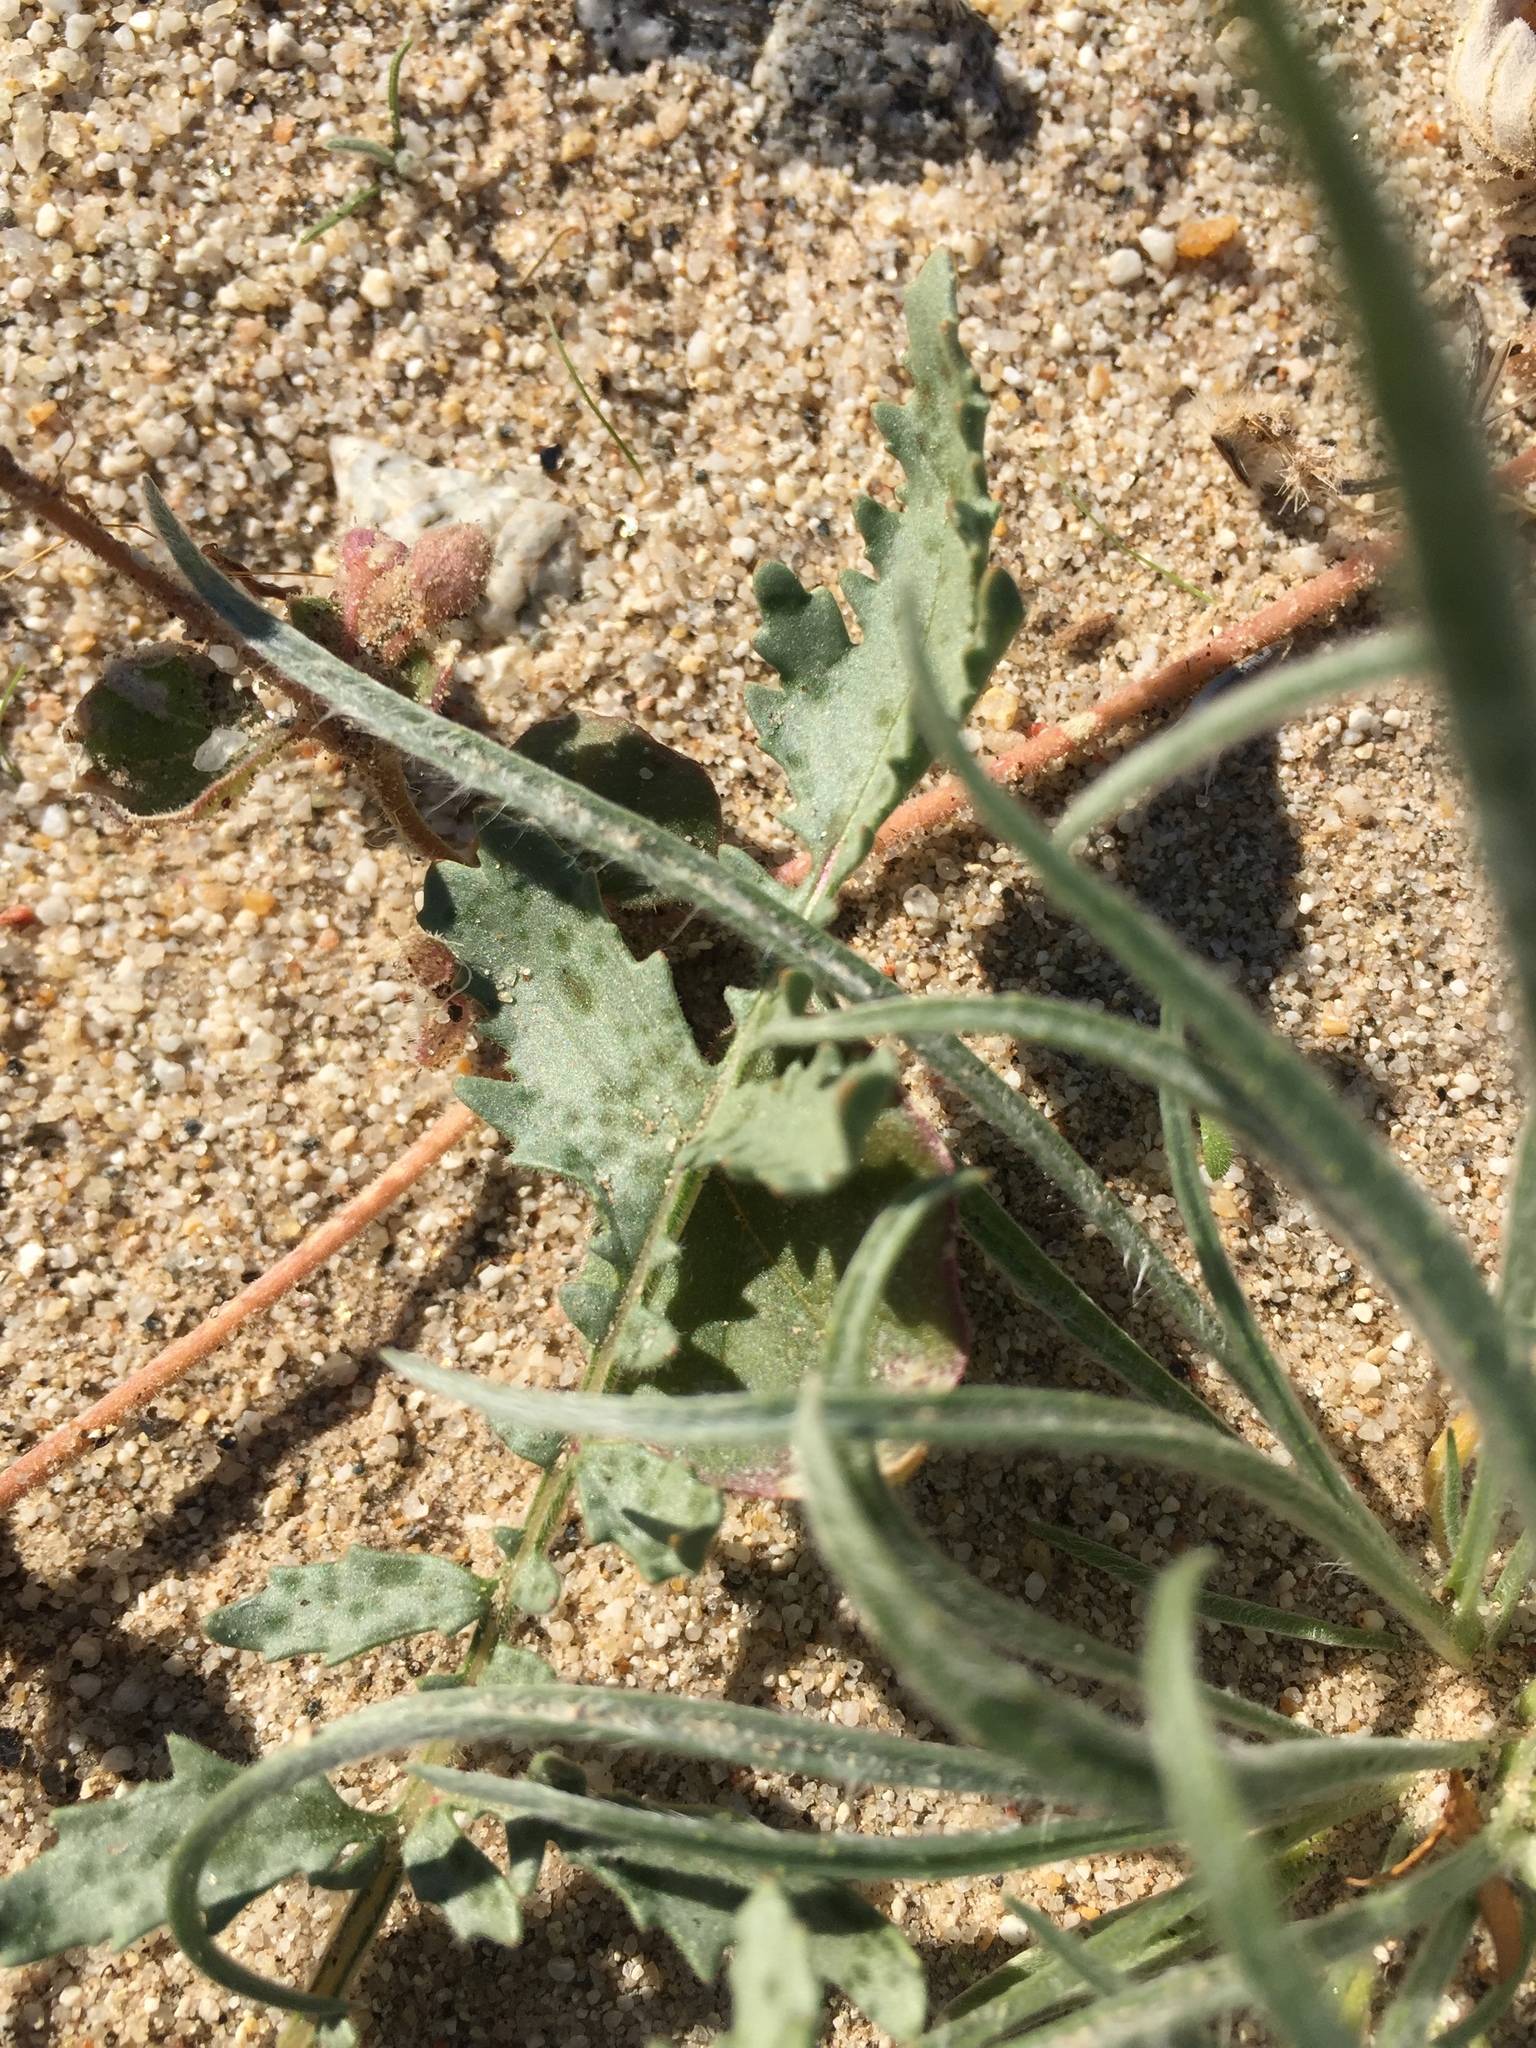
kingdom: Plantae
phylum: Tracheophyta
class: Magnoliopsida
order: Lamiales
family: Plantaginaceae
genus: Plantago
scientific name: Plantago ovata
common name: Blond plantain
